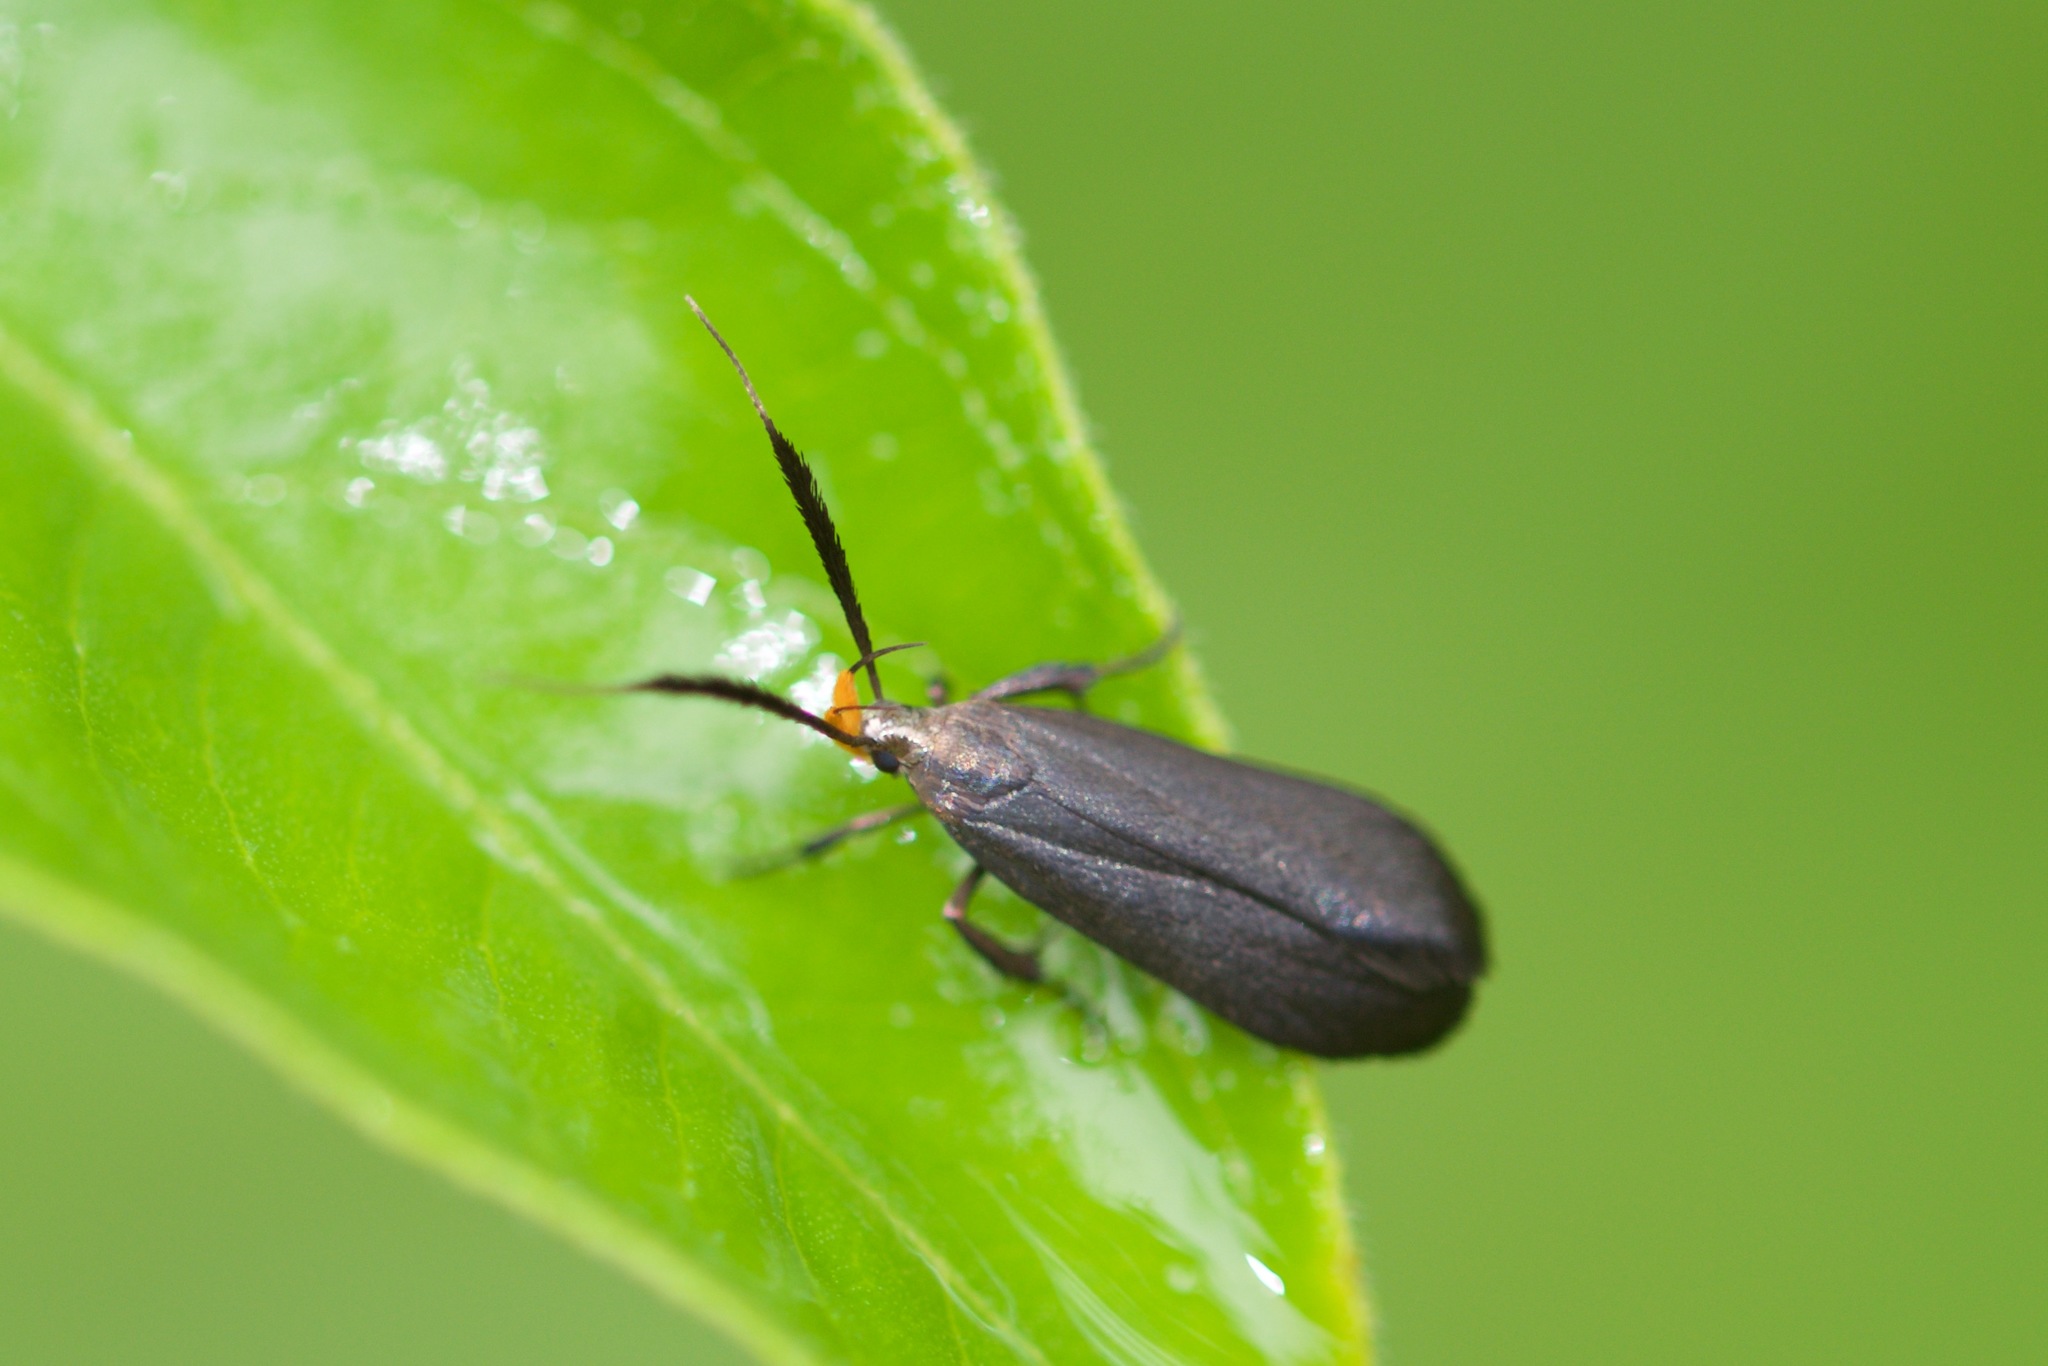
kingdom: Animalia
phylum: Arthropoda
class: Insecta
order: Lepidoptera
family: Gelechiidae
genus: Dichomeris
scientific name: Dichomeris nonstrigella
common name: Little devil moth
